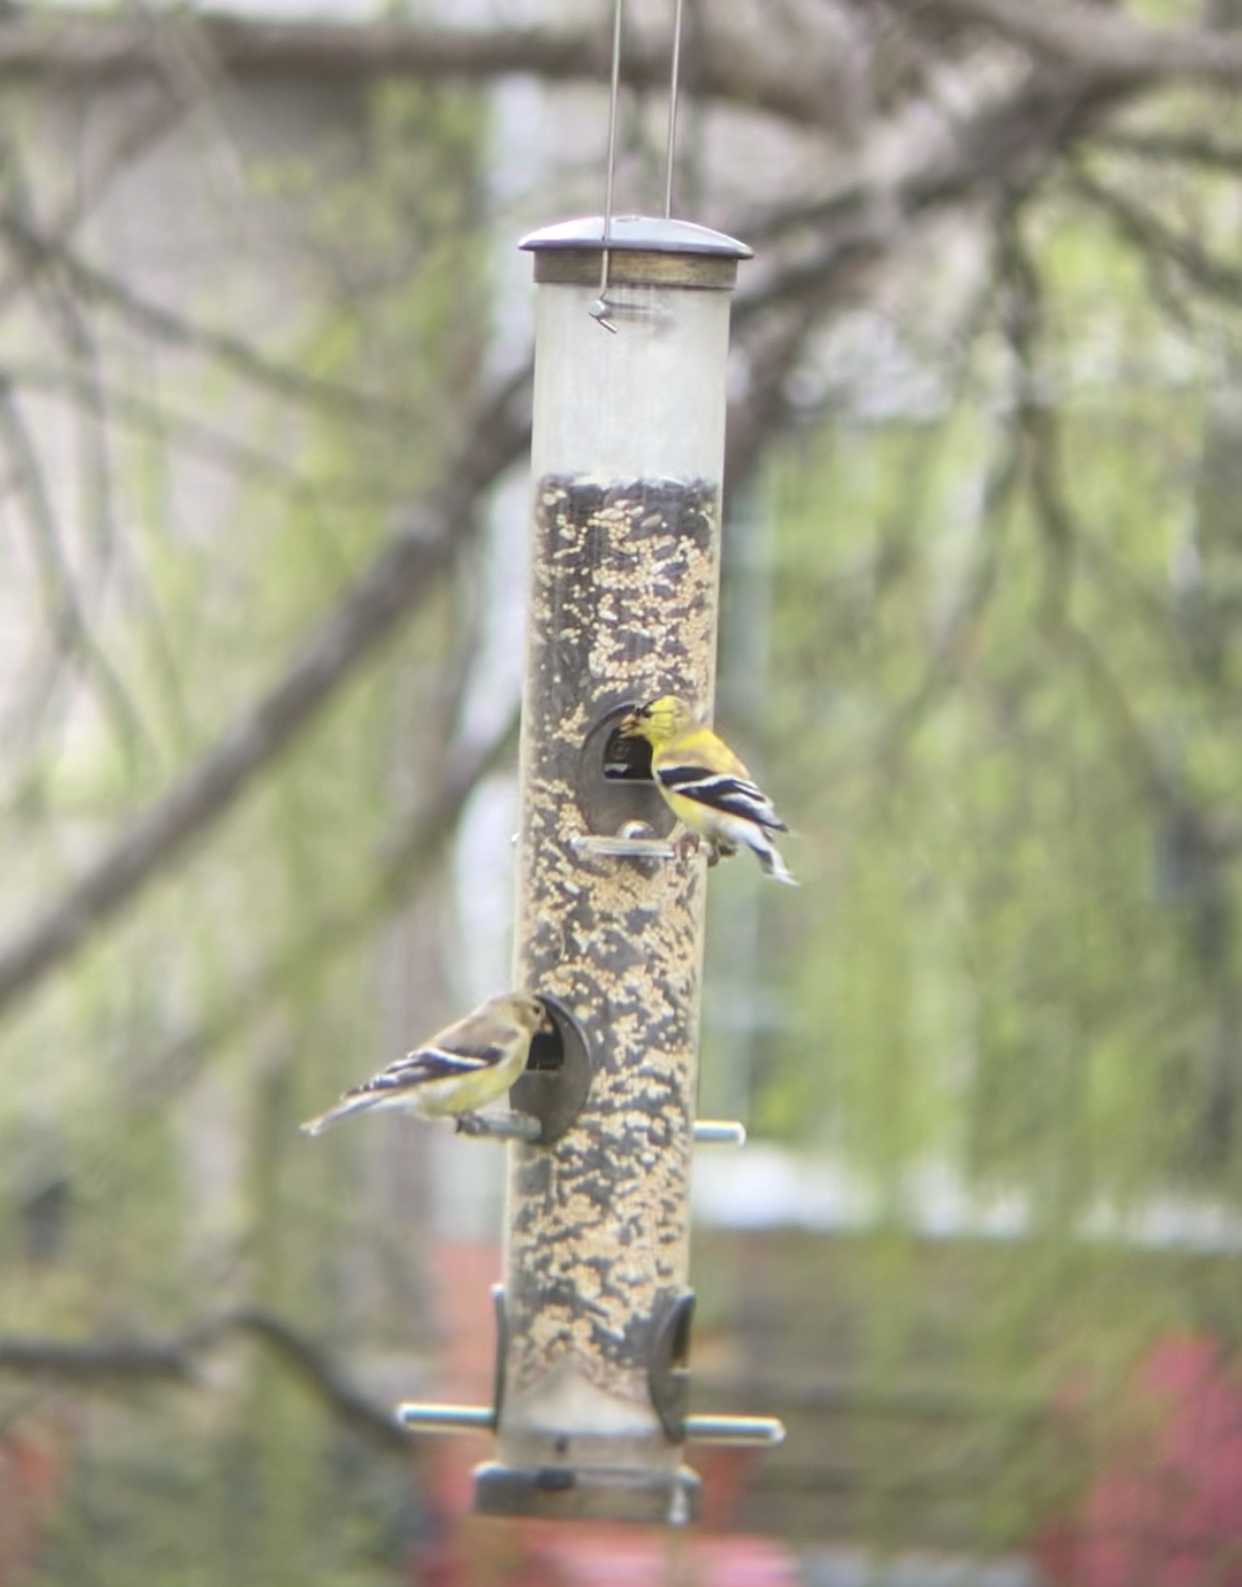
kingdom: Animalia
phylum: Chordata
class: Aves
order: Passeriformes
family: Fringillidae
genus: Spinus
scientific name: Spinus tristis
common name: American goldfinch
